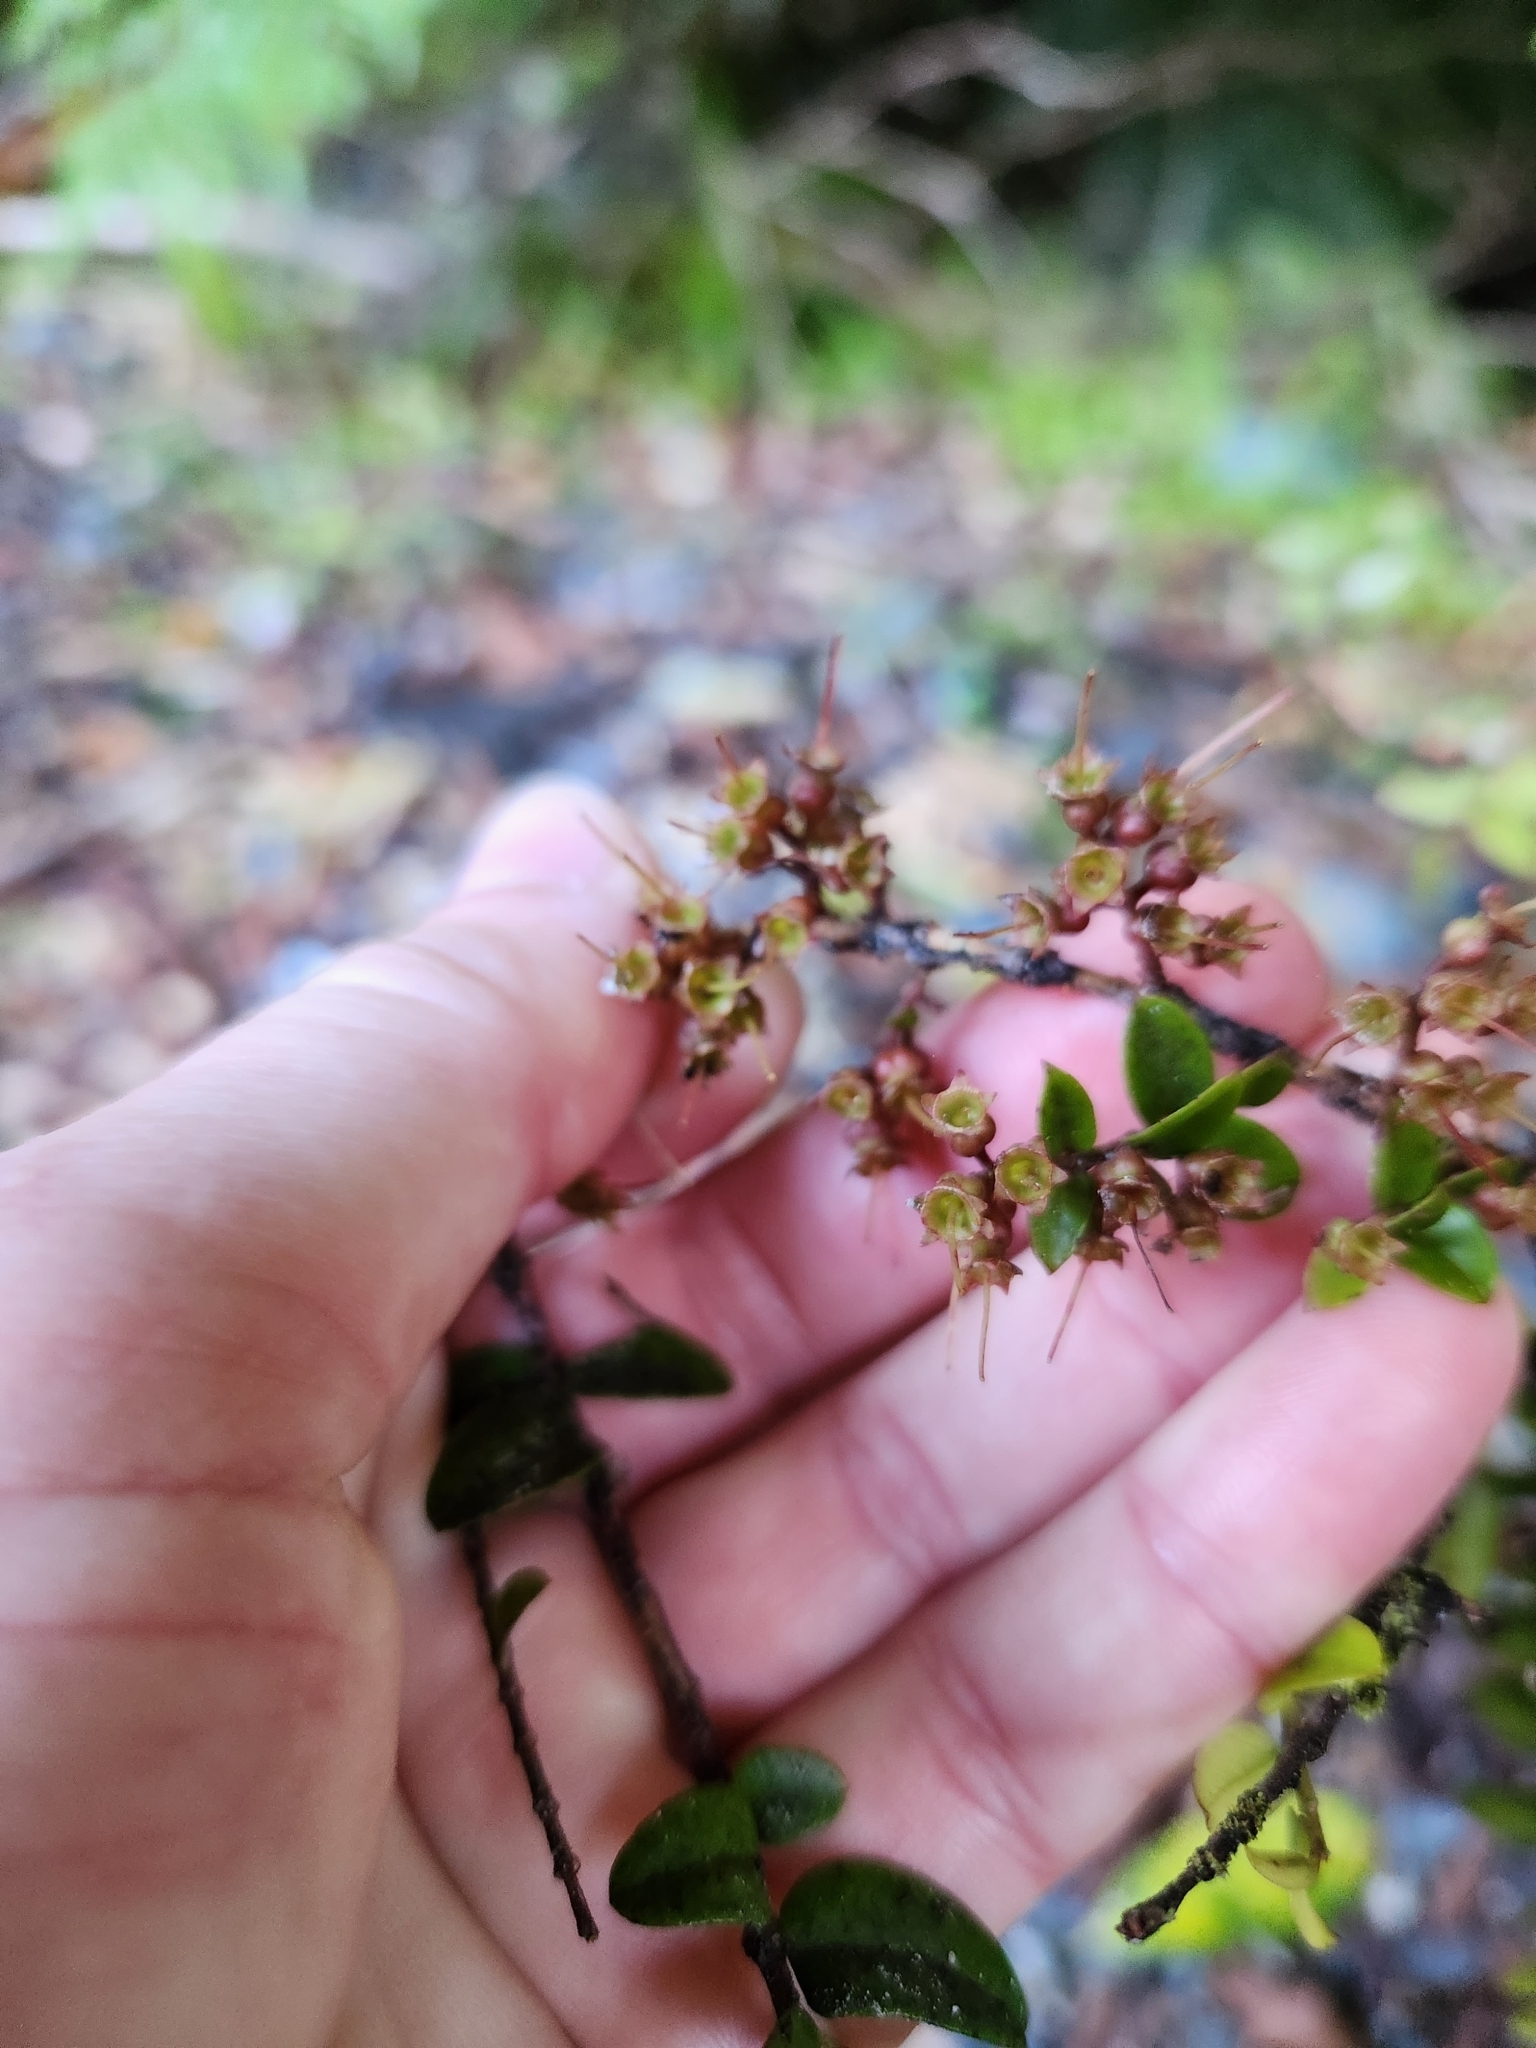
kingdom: Plantae
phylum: Tracheophyta
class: Magnoliopsida
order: Myrtales
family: Myrtaceae
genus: Metrosideros
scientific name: Metrosideros diffusa
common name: Small ratavine
